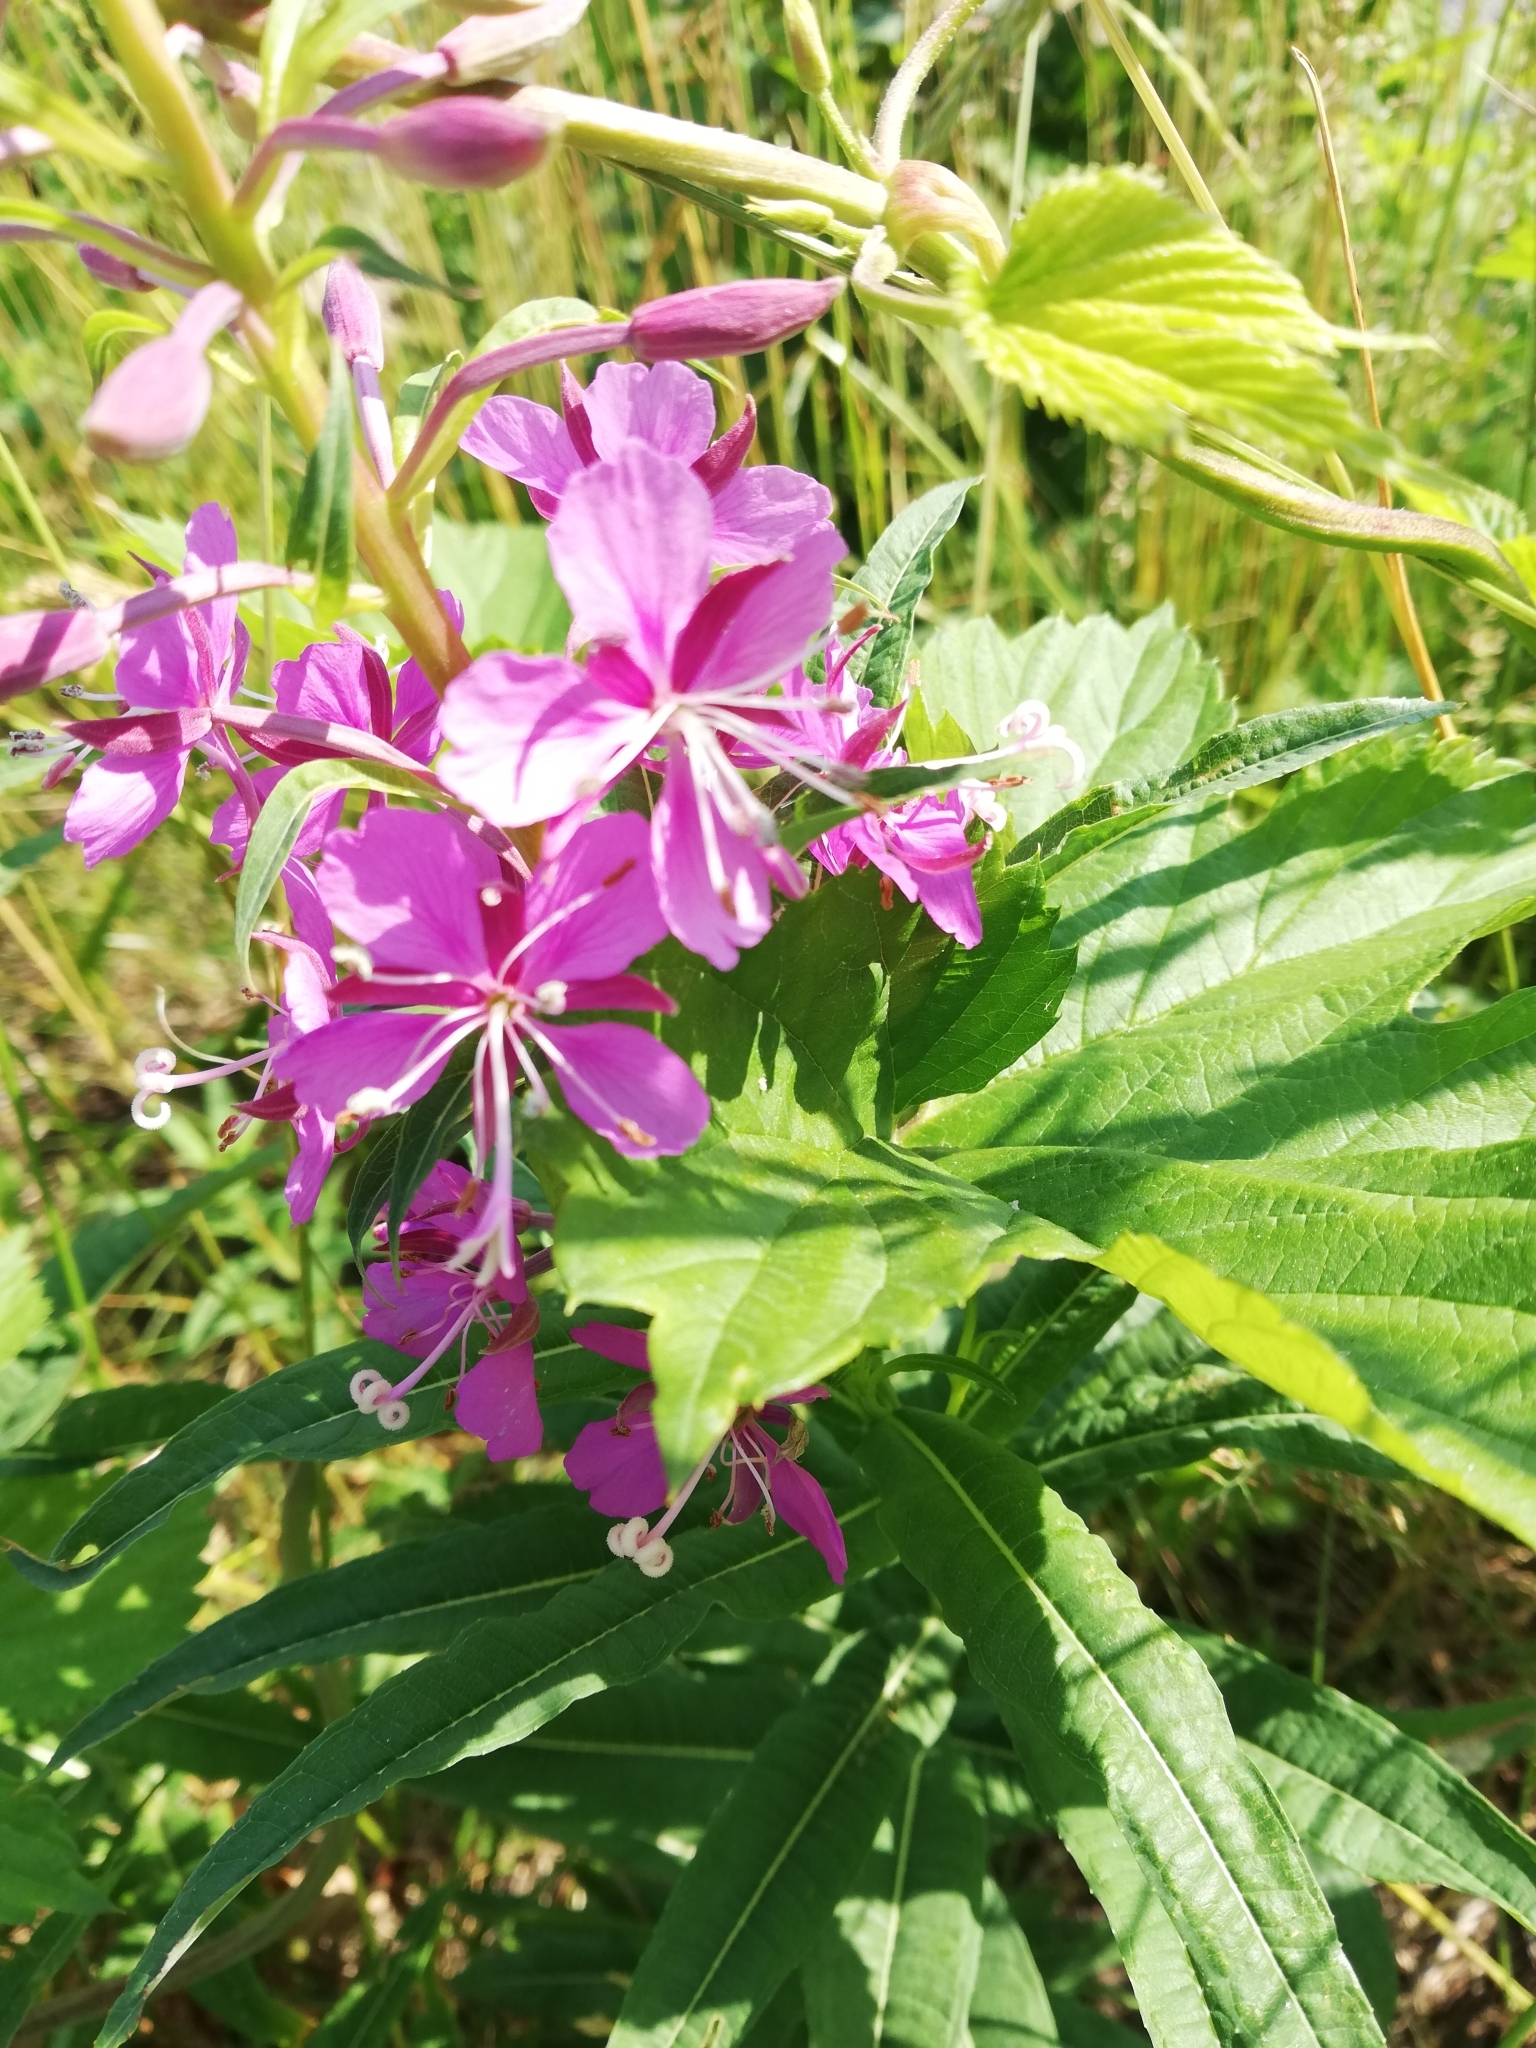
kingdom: Plantae
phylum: Tracheophyta
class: Magnoliopsida
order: Myrtales
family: Onagraceae
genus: Chamaenerion
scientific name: Chamaenerion angustifolium
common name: Fireweed
